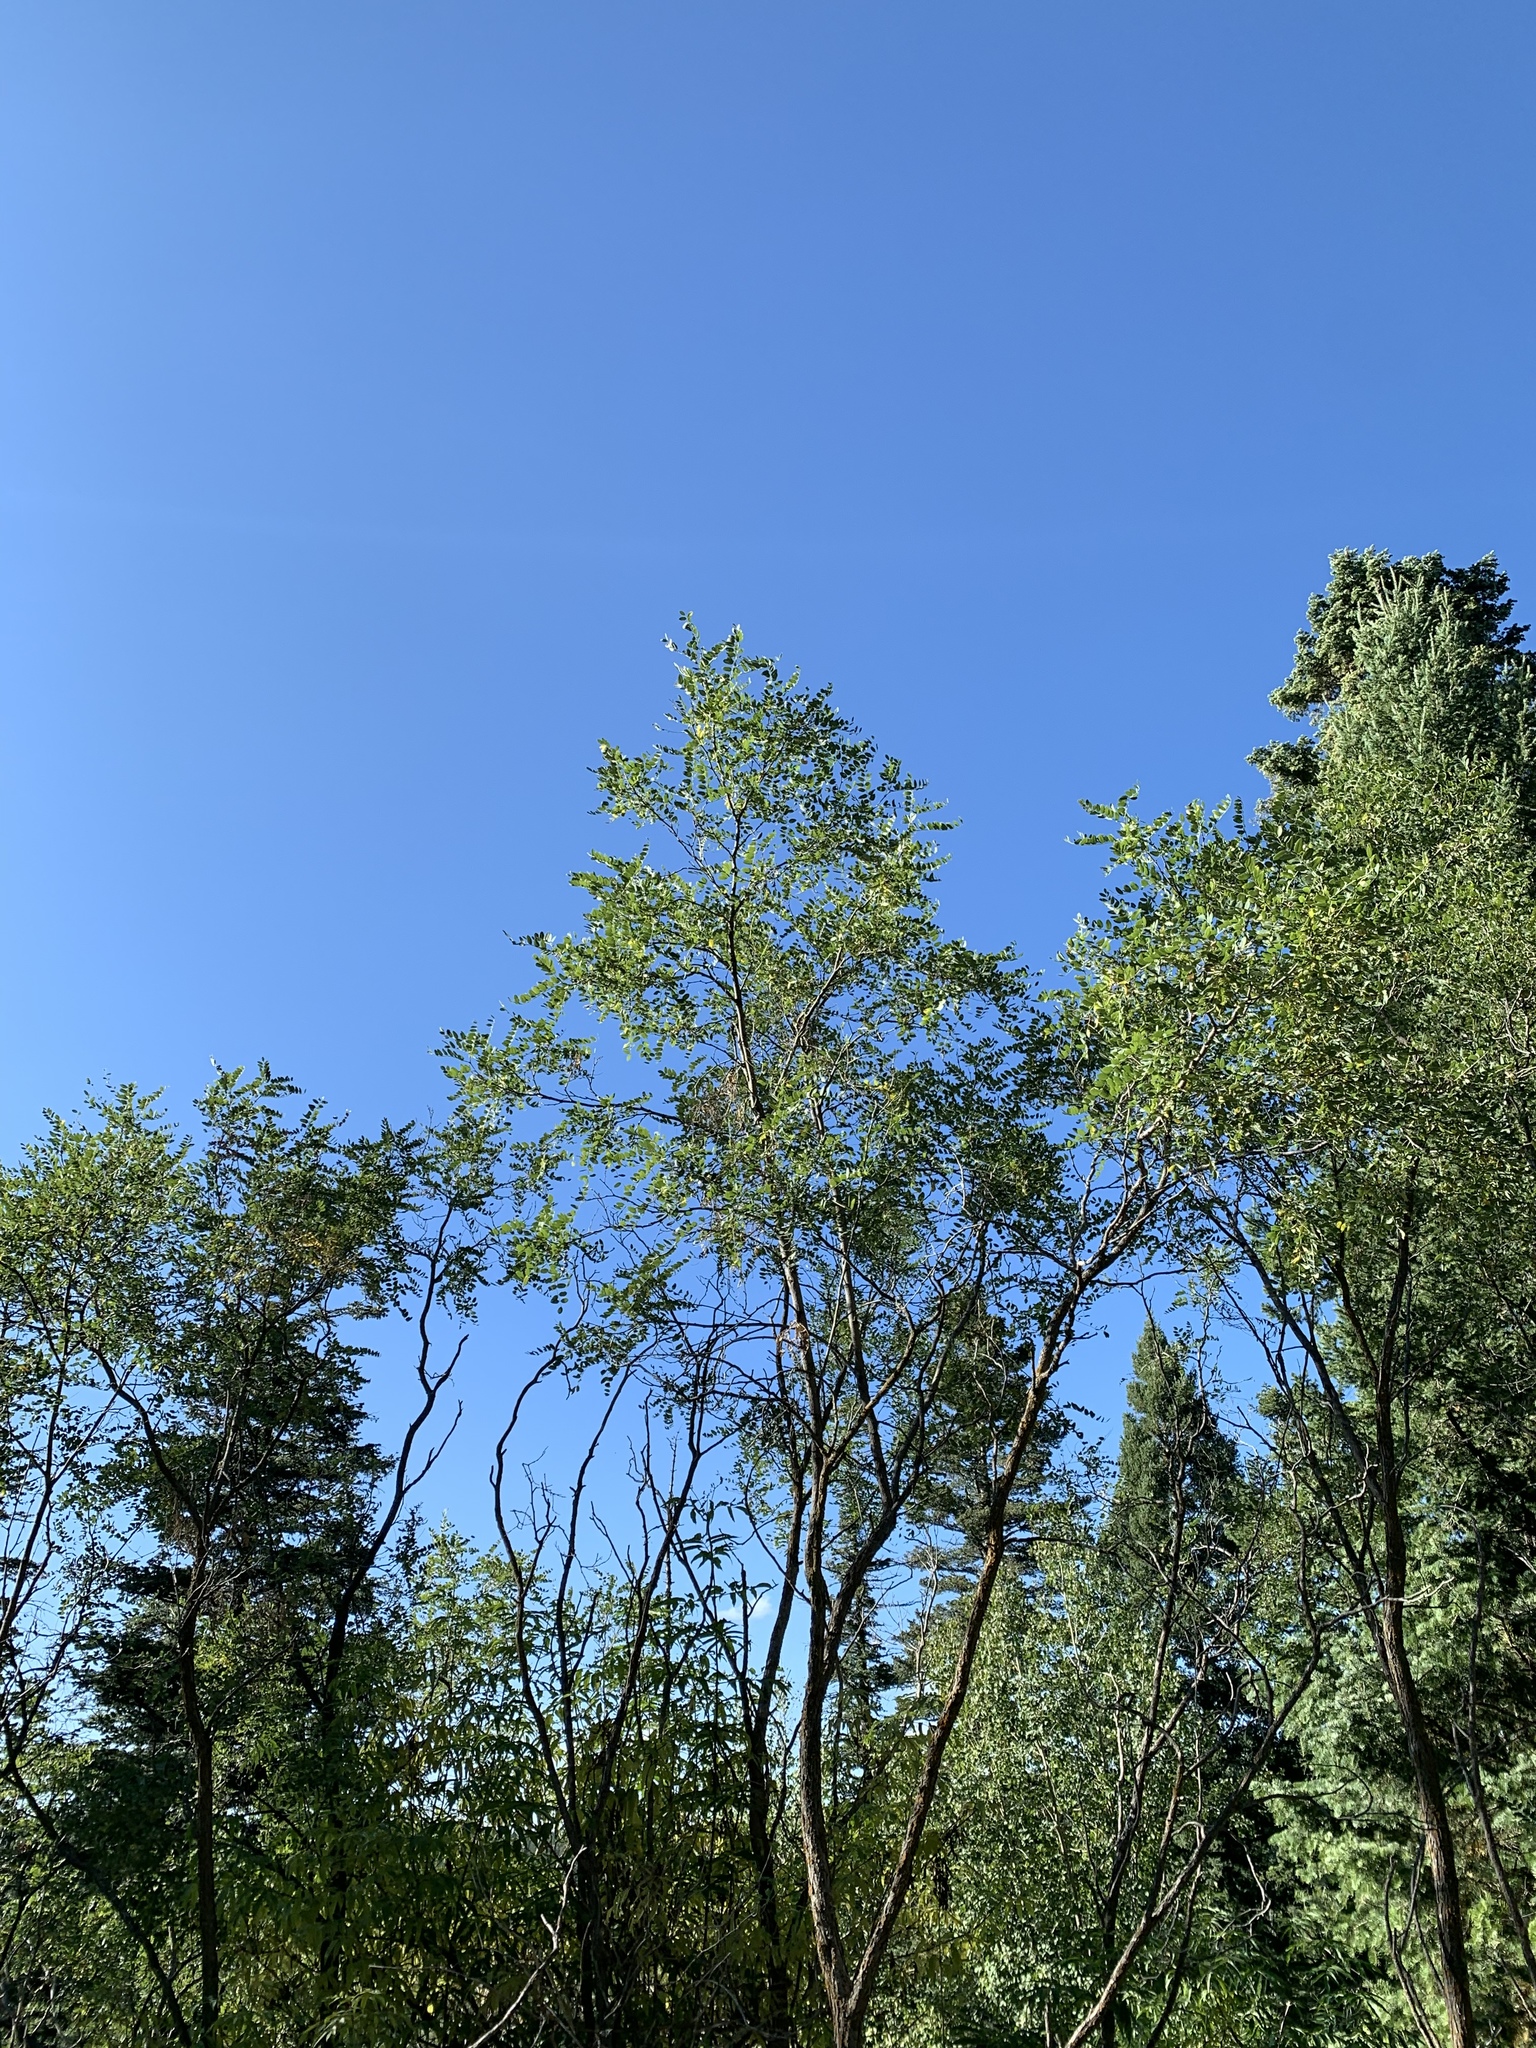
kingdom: Plantae
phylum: Tracheophyta
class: Magnoliopsida
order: Fabales
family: Fabaceae
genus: Robinia
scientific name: Robinia neomexicana
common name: New mexico locust
